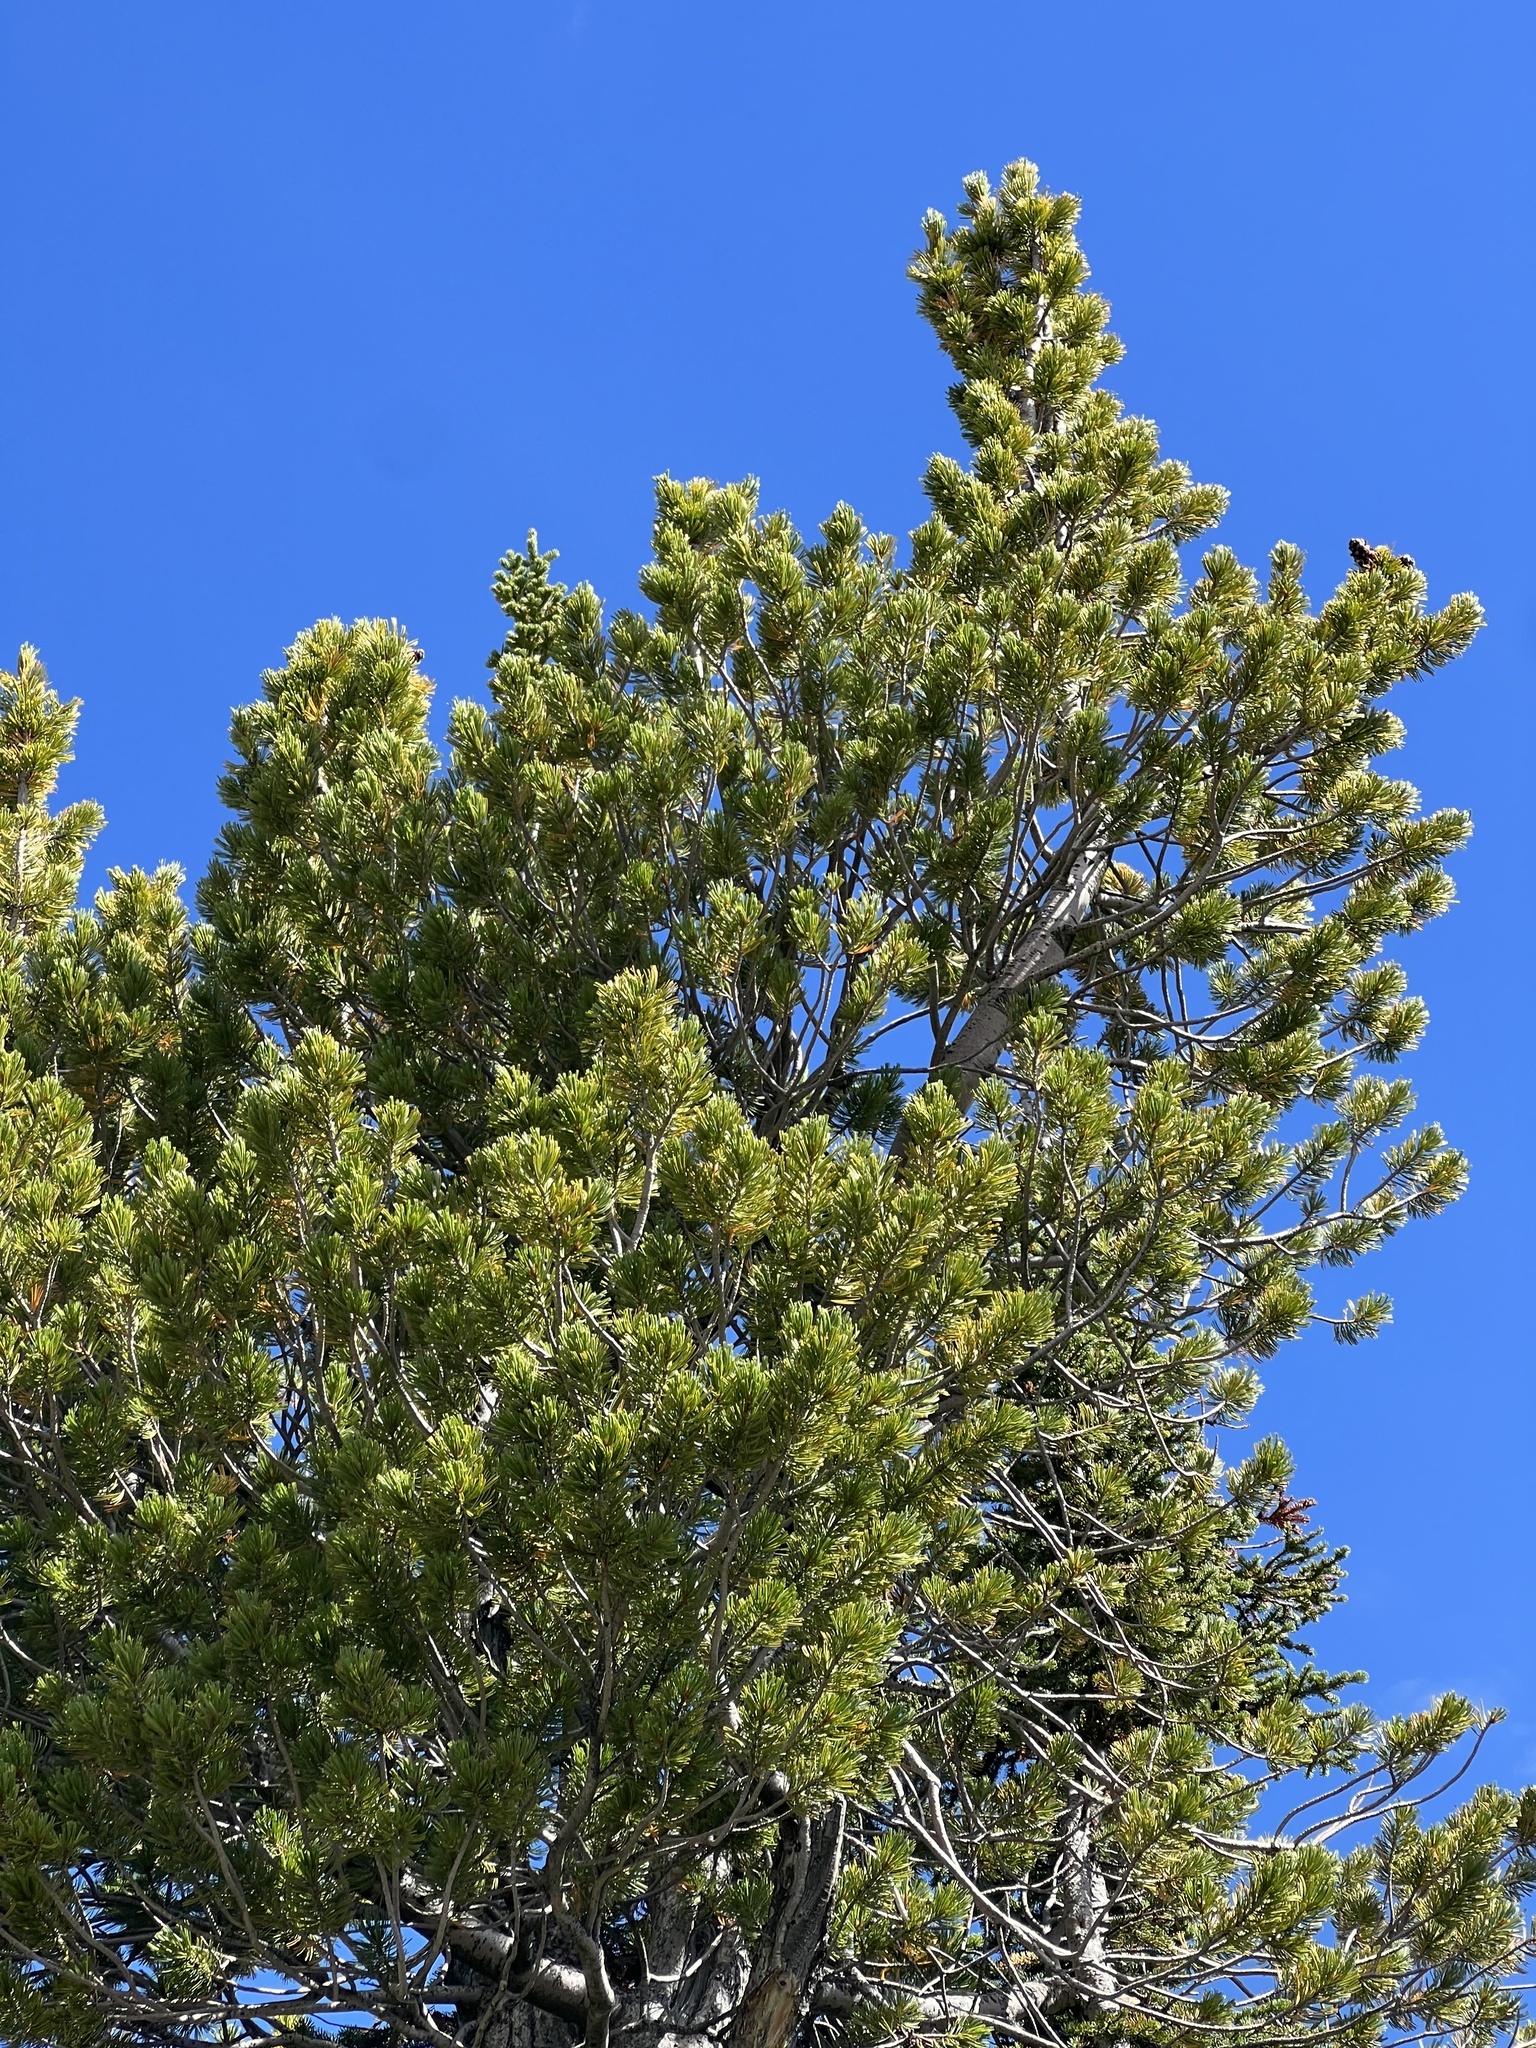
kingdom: Plantae
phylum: Tracheophyta
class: Pinopsida
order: Pinales
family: Pinaceae
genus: Pinus
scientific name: Pinus albicaulis
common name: Whitebark pine
